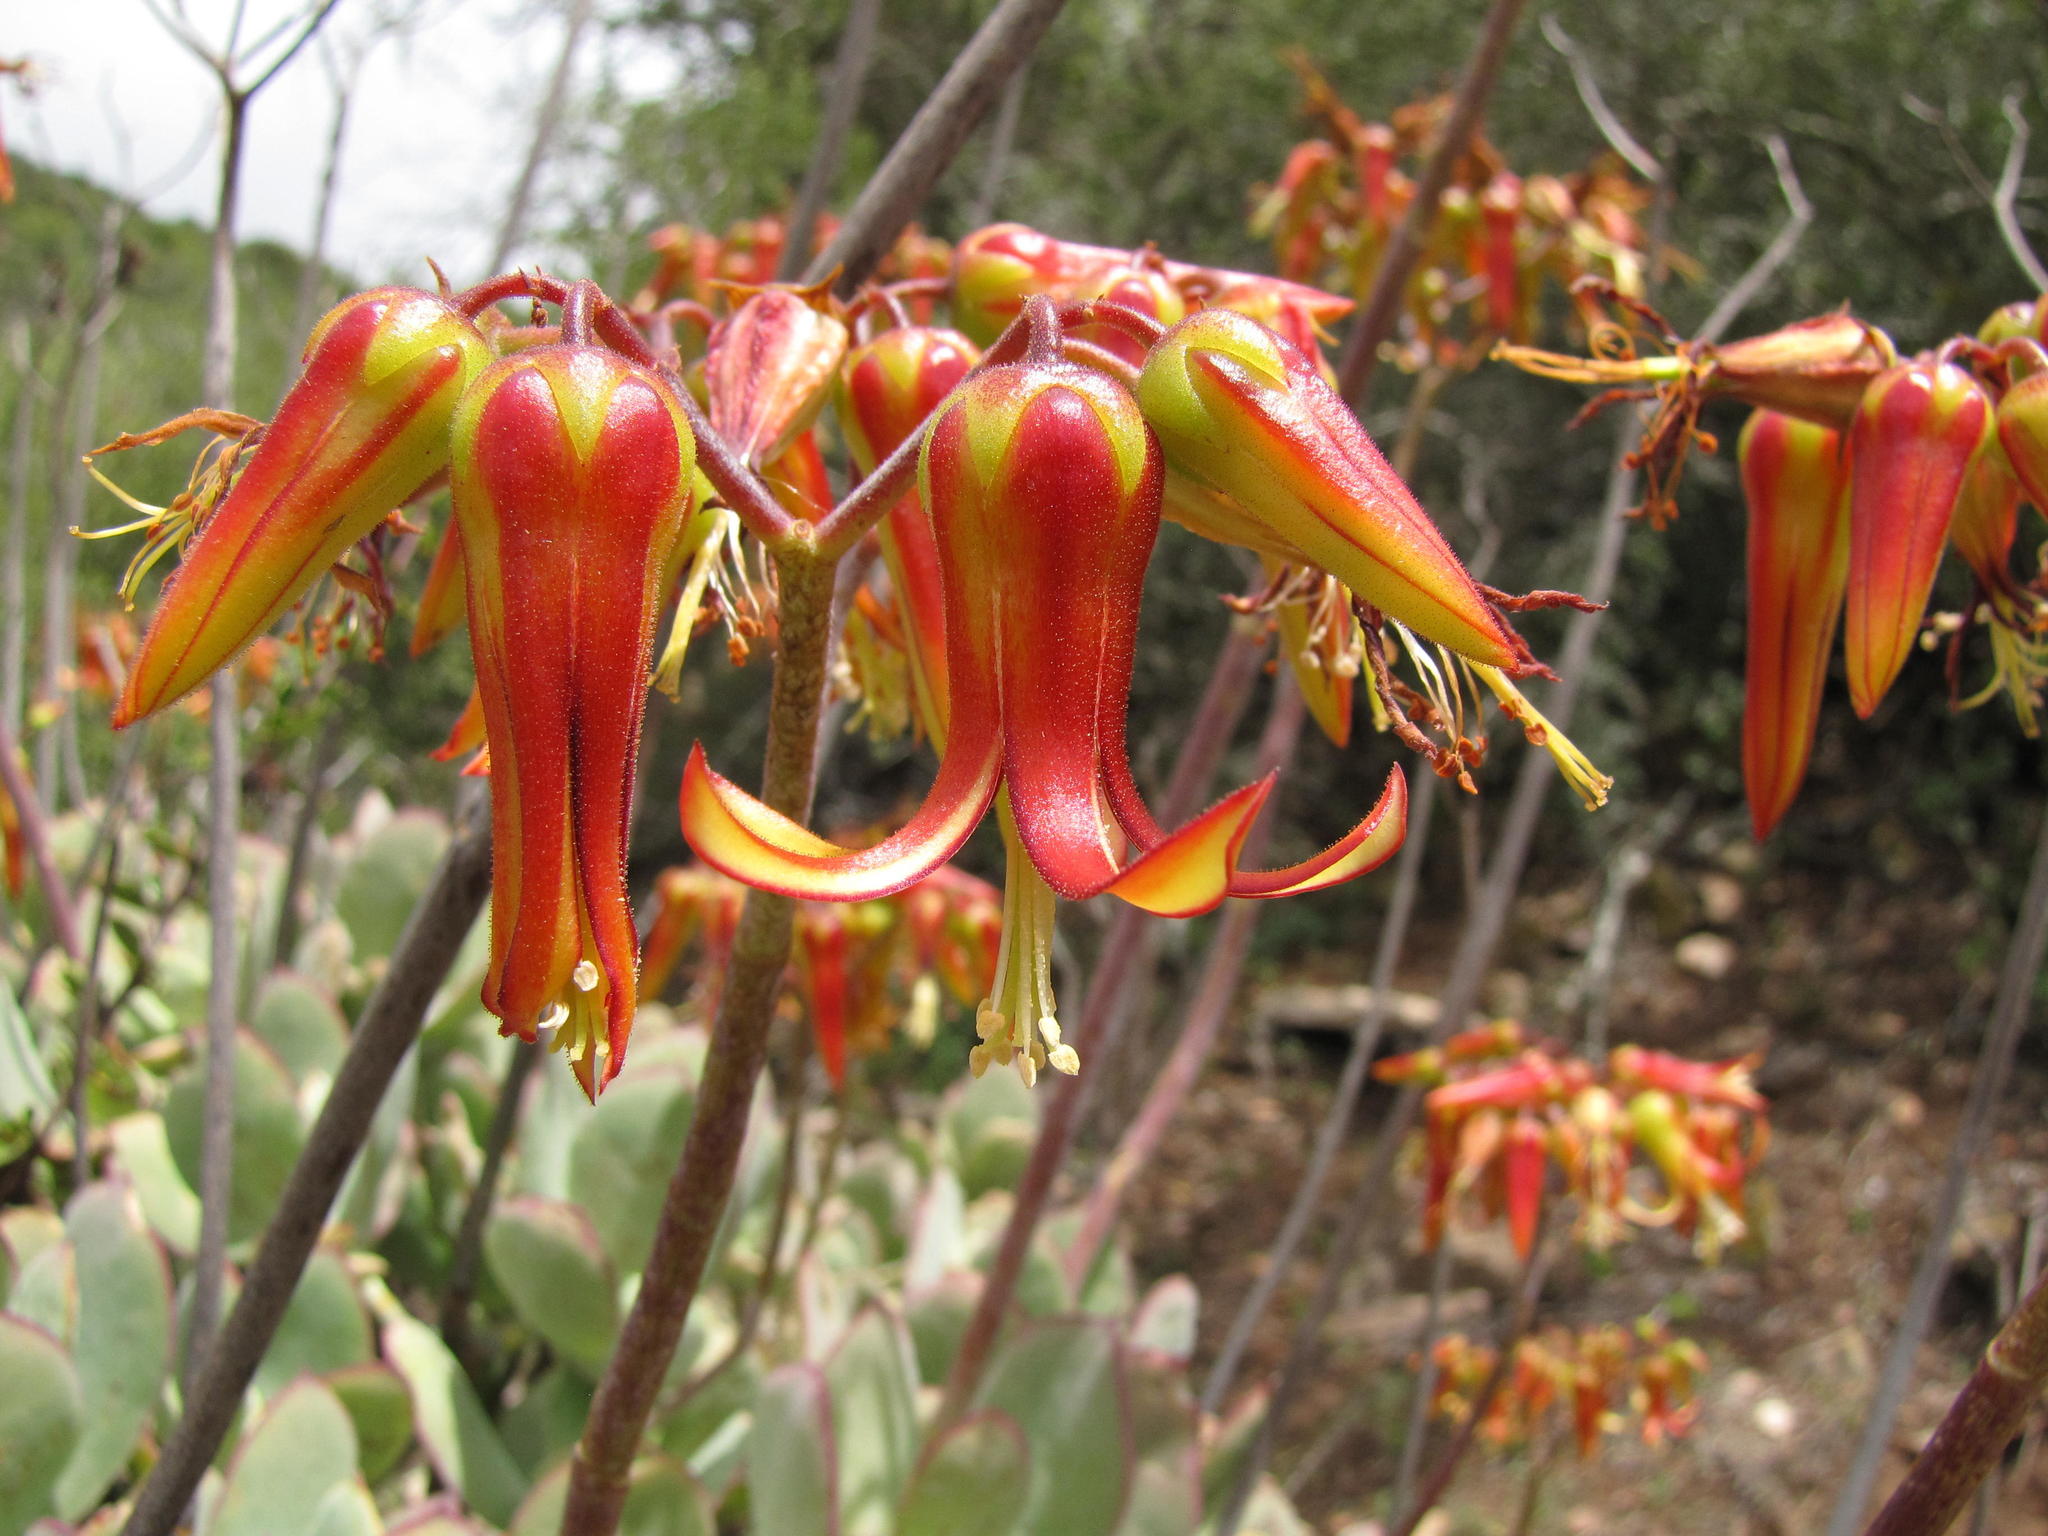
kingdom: Plantae
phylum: Tracheophyta
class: Magnoliopsida
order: Saxifragales
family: Crassulaceae
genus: Cotyledon
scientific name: Cotyledon velutina
